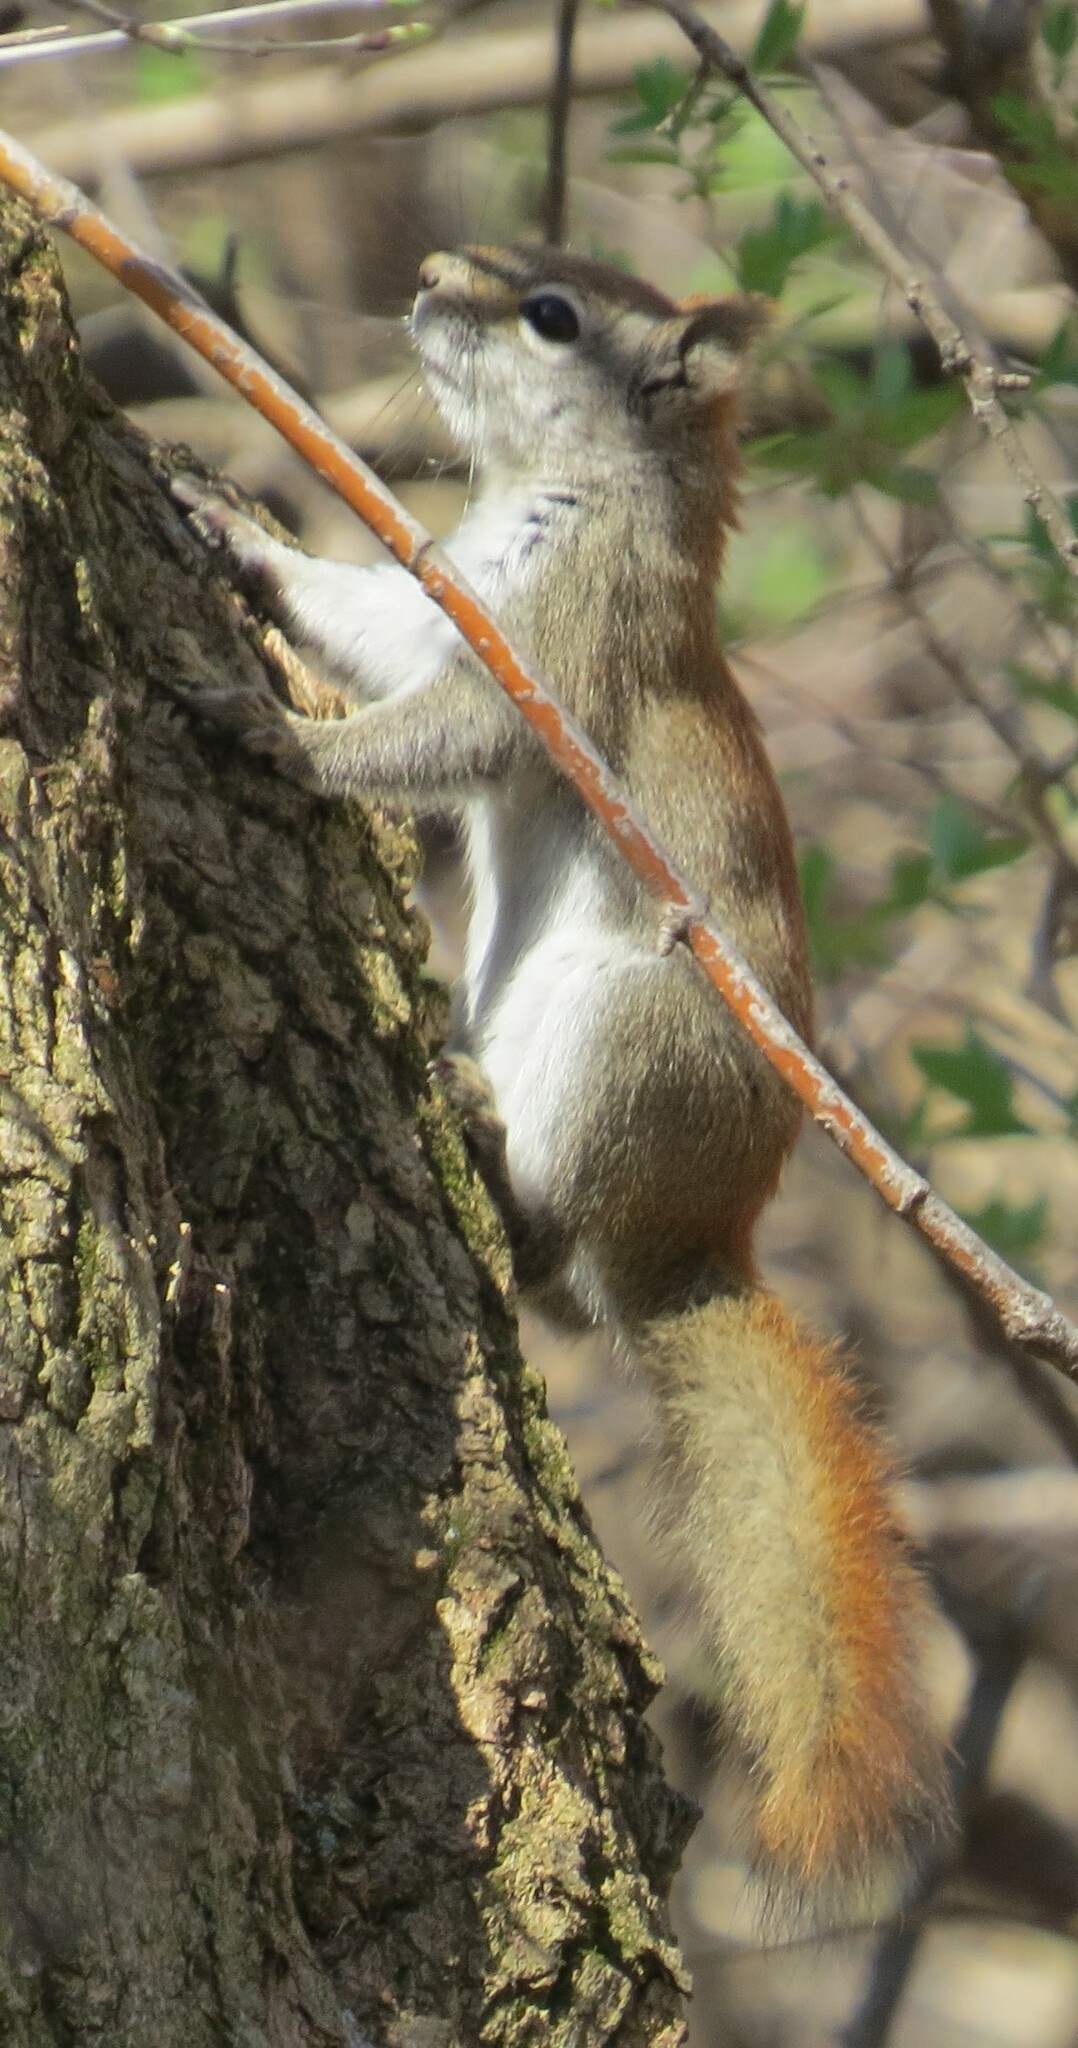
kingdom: Animalia
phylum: Chordata
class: Mammalia
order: Rodentia
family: Sciuridae
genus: Tamiasciurus
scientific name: Tamiasciurus hudsonicus
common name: Red squirrel
